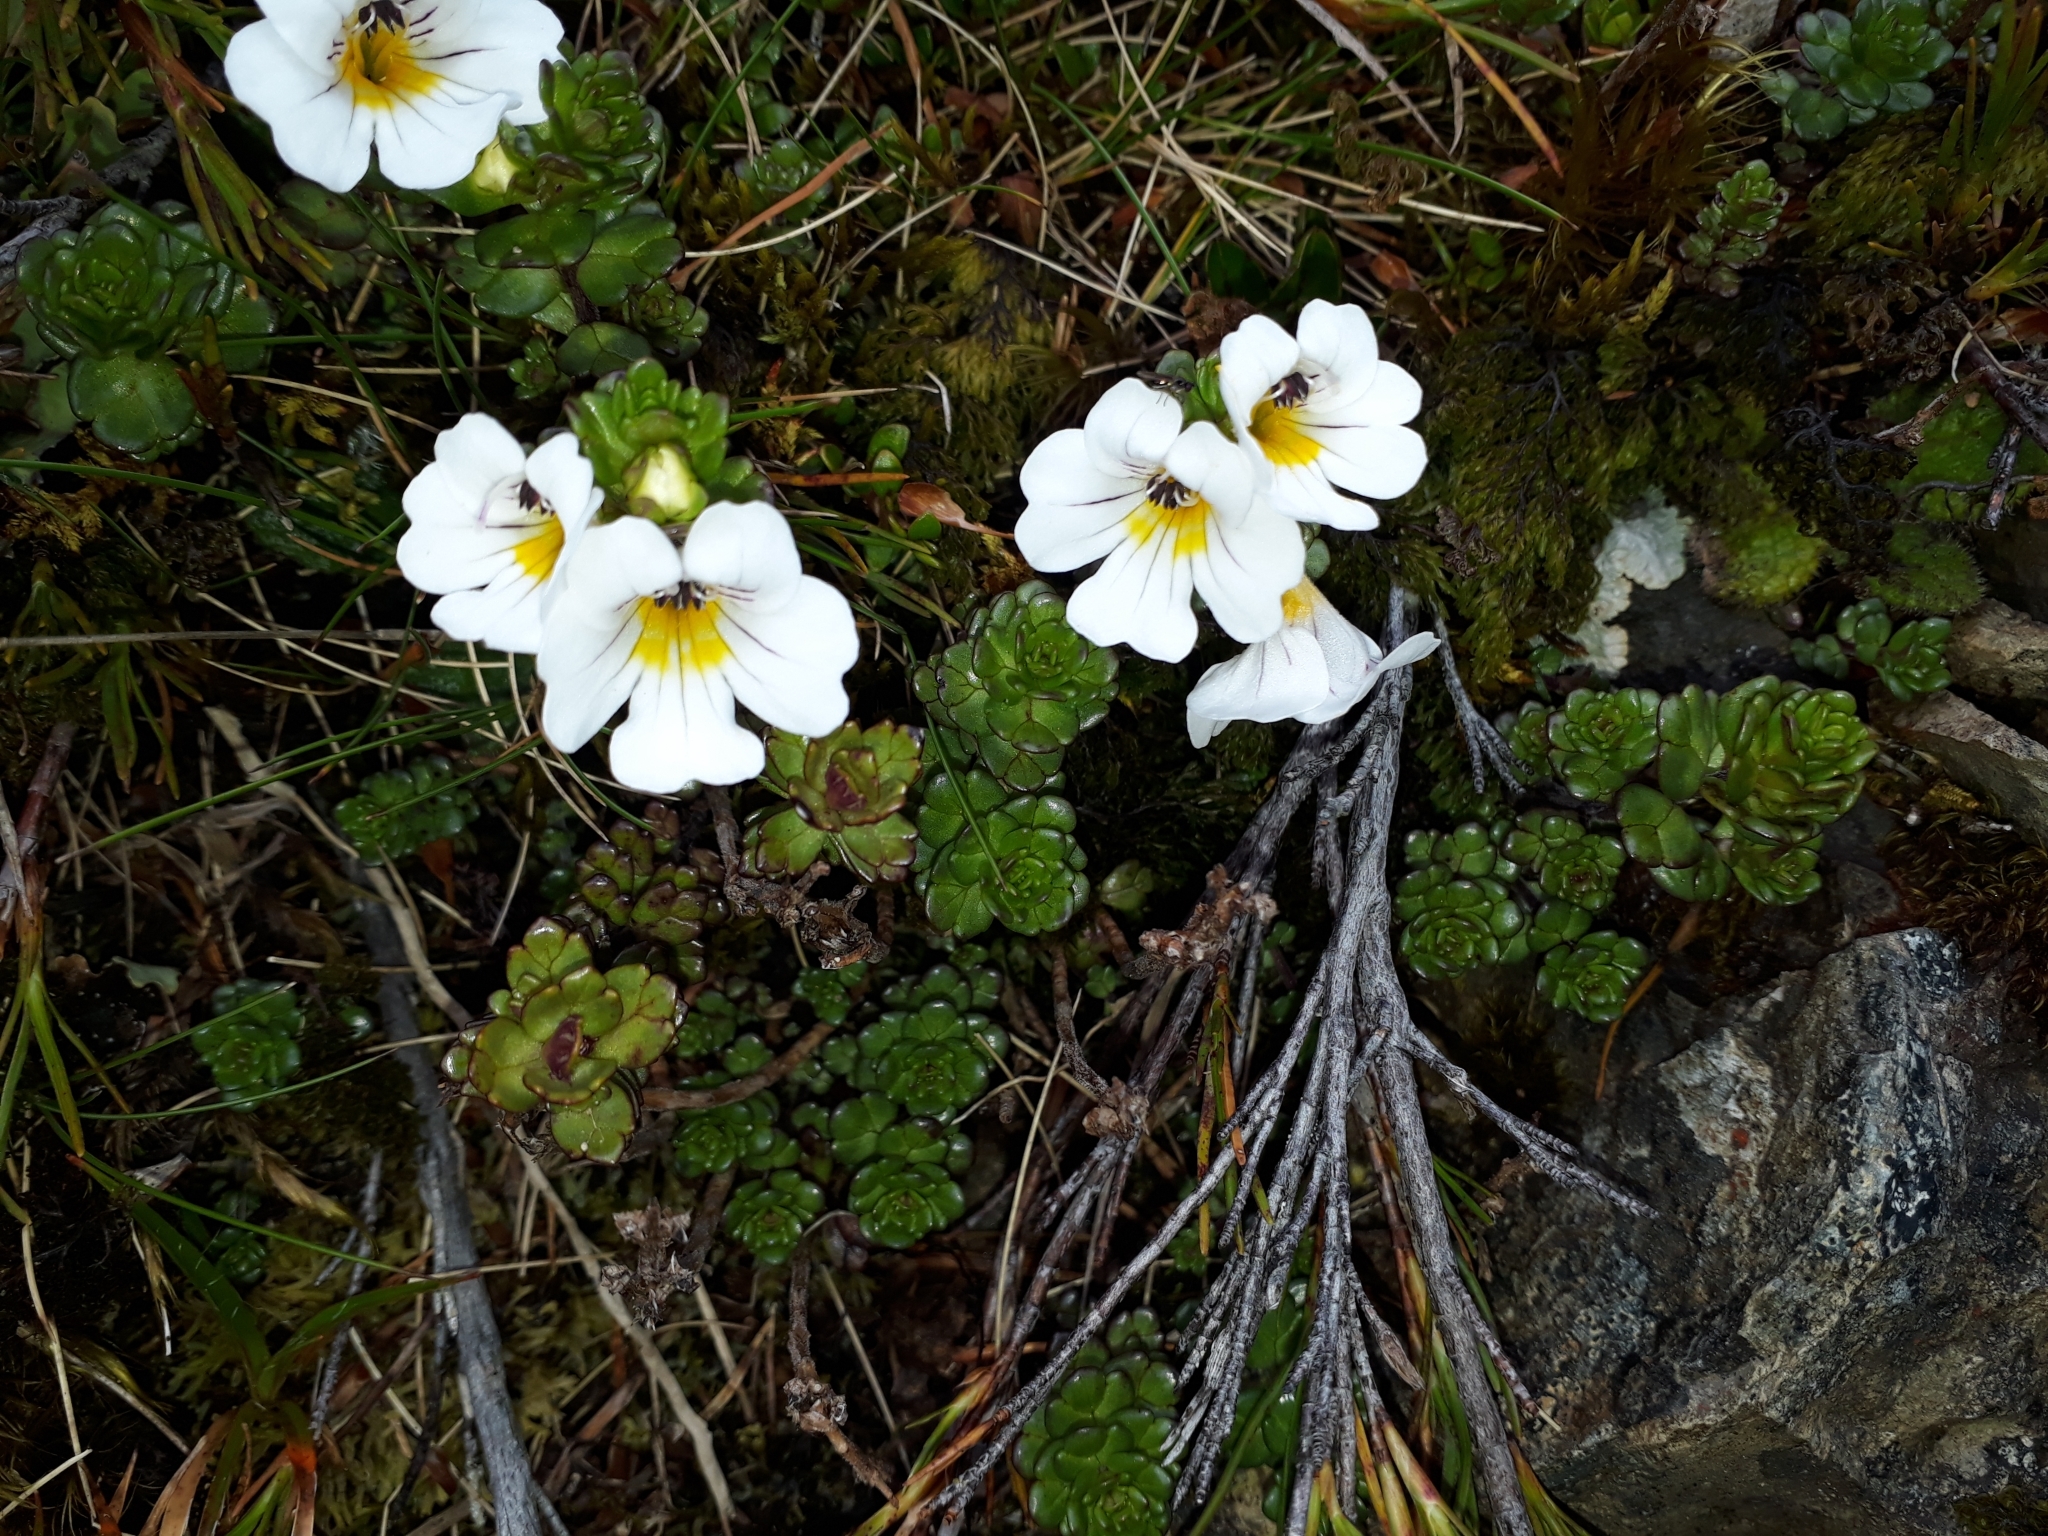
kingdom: Plantae
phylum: Tracheophyta
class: Magnoliopsida
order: Lamiales
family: Orobanchaceae
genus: Euphrasia
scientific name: Euphrasia drucei
